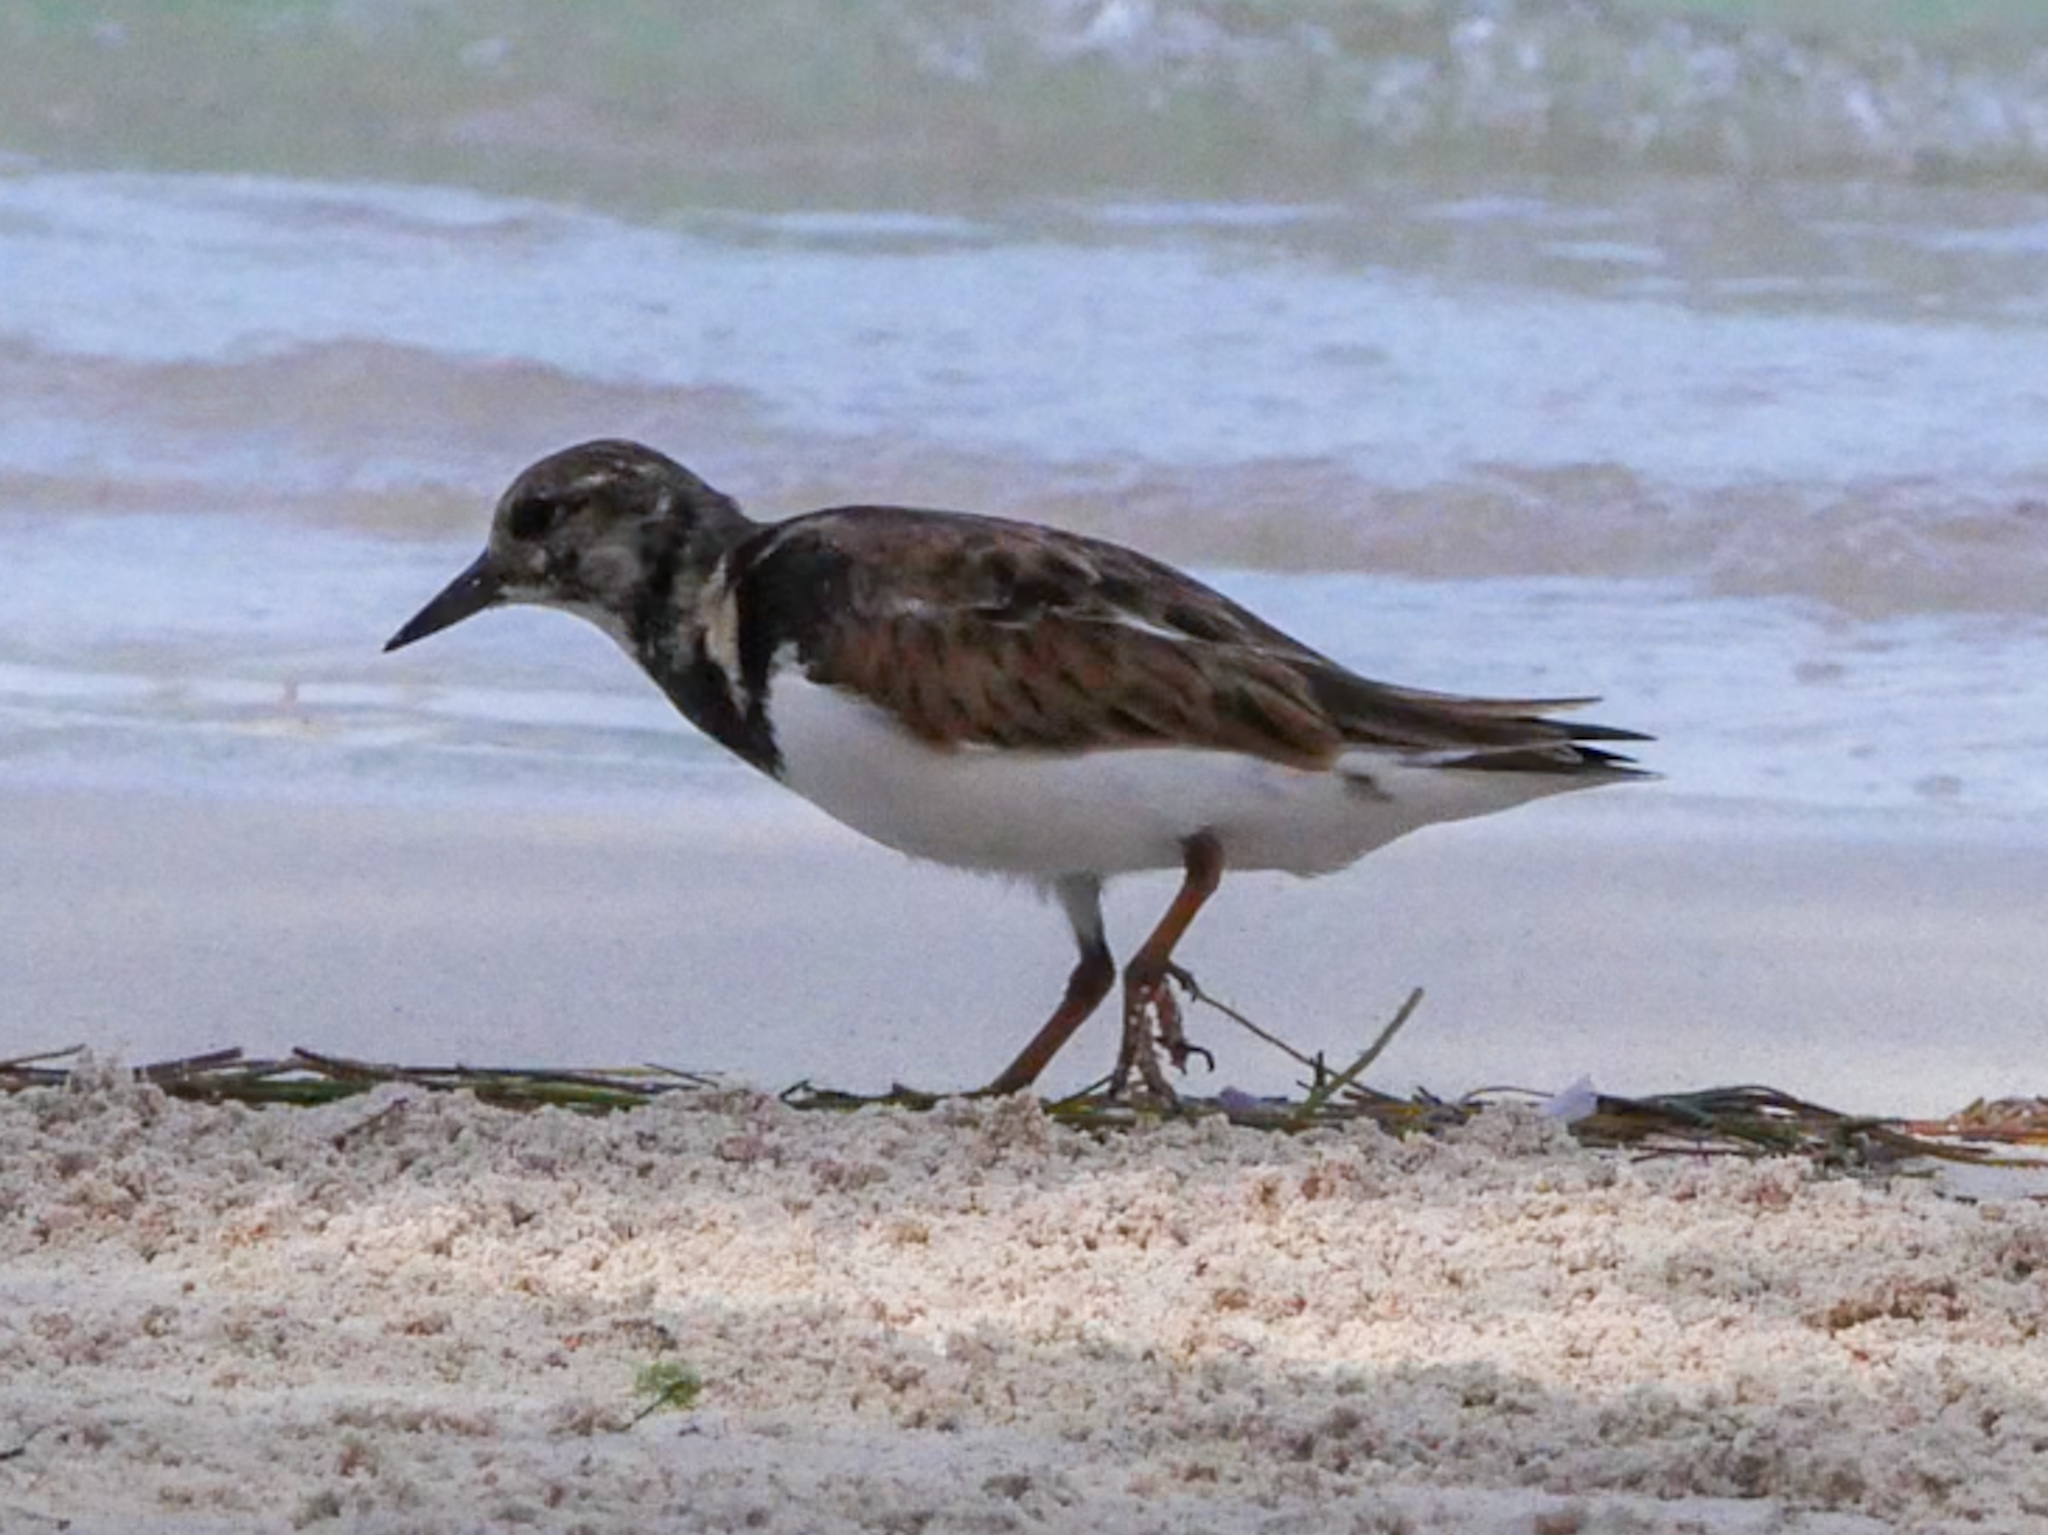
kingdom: Animalia
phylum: Chordata
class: Aves
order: Charadriiformes
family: Scolopacidae
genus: Arenaria
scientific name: Arenaria interpres
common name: Ruddy turnstone
